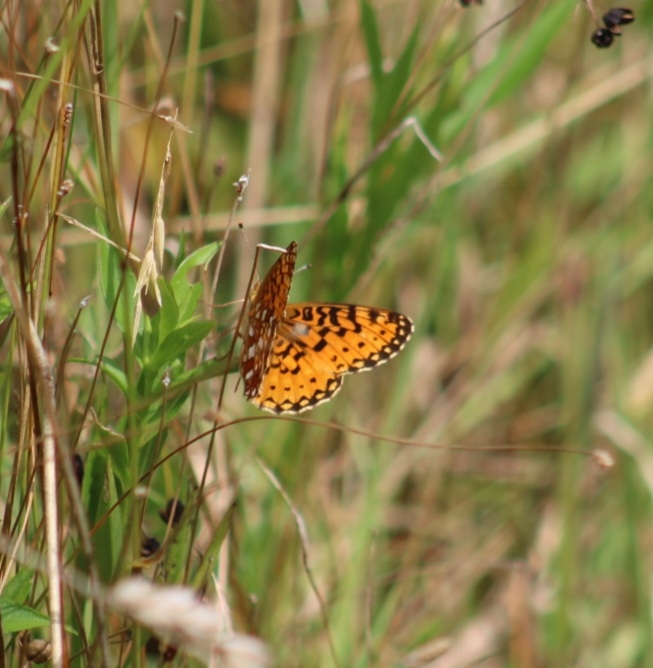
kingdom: Animalia
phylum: Arthropoda
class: Insecta
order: Lepidoptera
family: Nymphalidae
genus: Boloria
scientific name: Boloria
